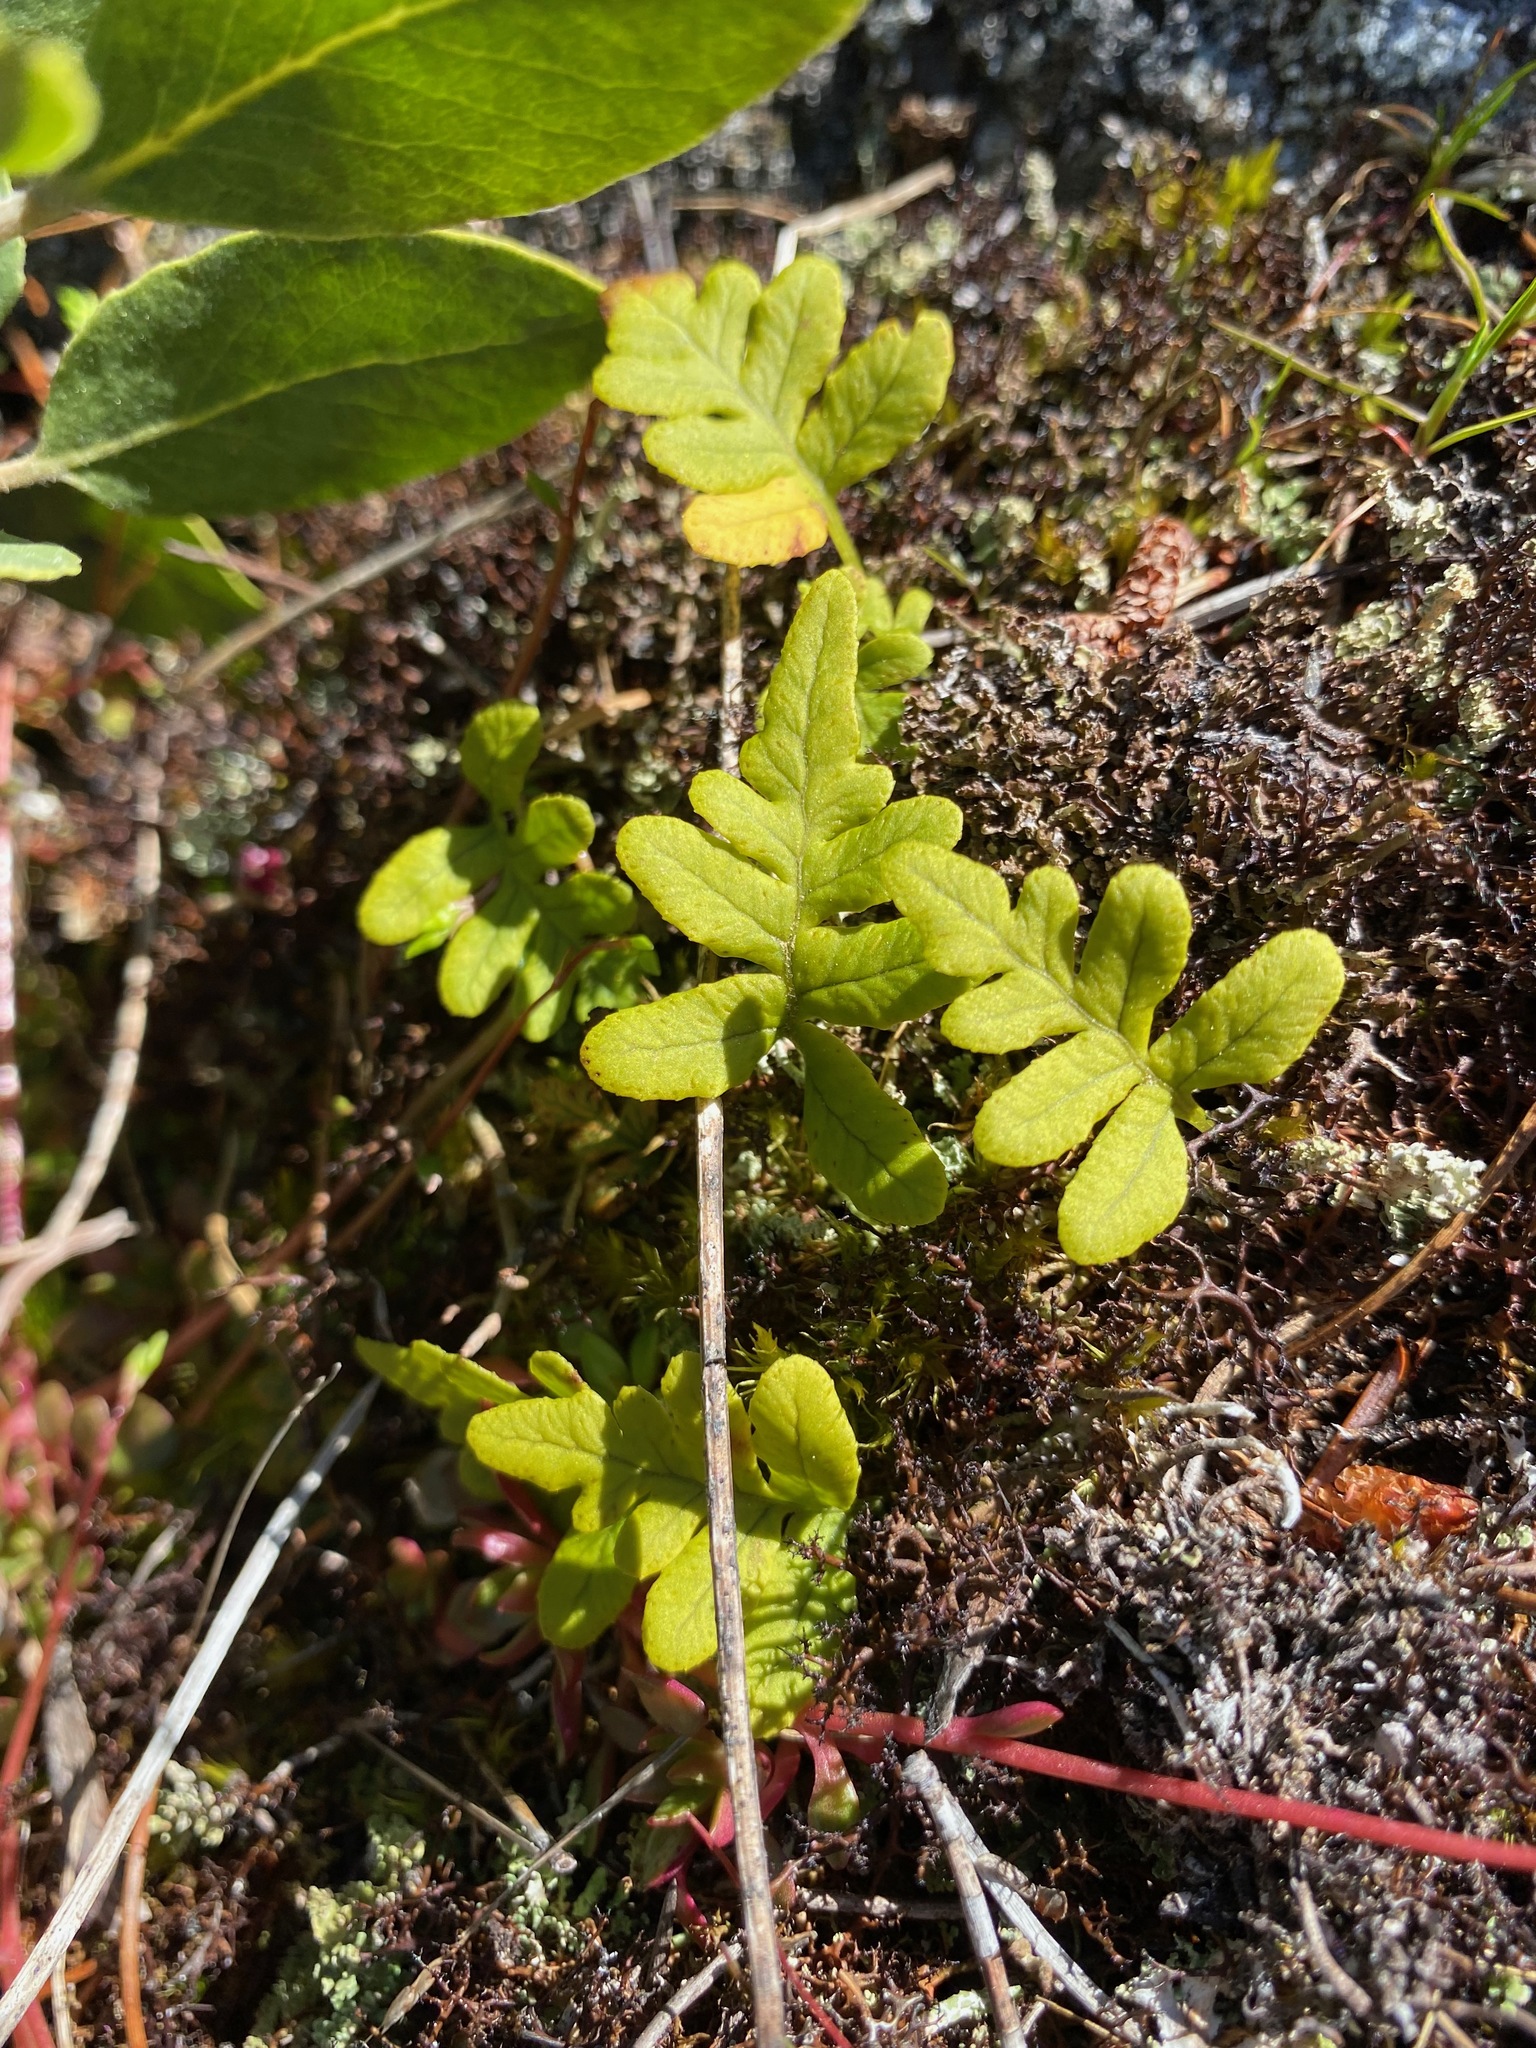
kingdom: Plantae
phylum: Tracheophyta
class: Polypodiopsida
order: Polypodiales
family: Polypodiaceae
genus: Polypodium
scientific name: Polypodium glycyrrhiza
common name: Licorice fern
